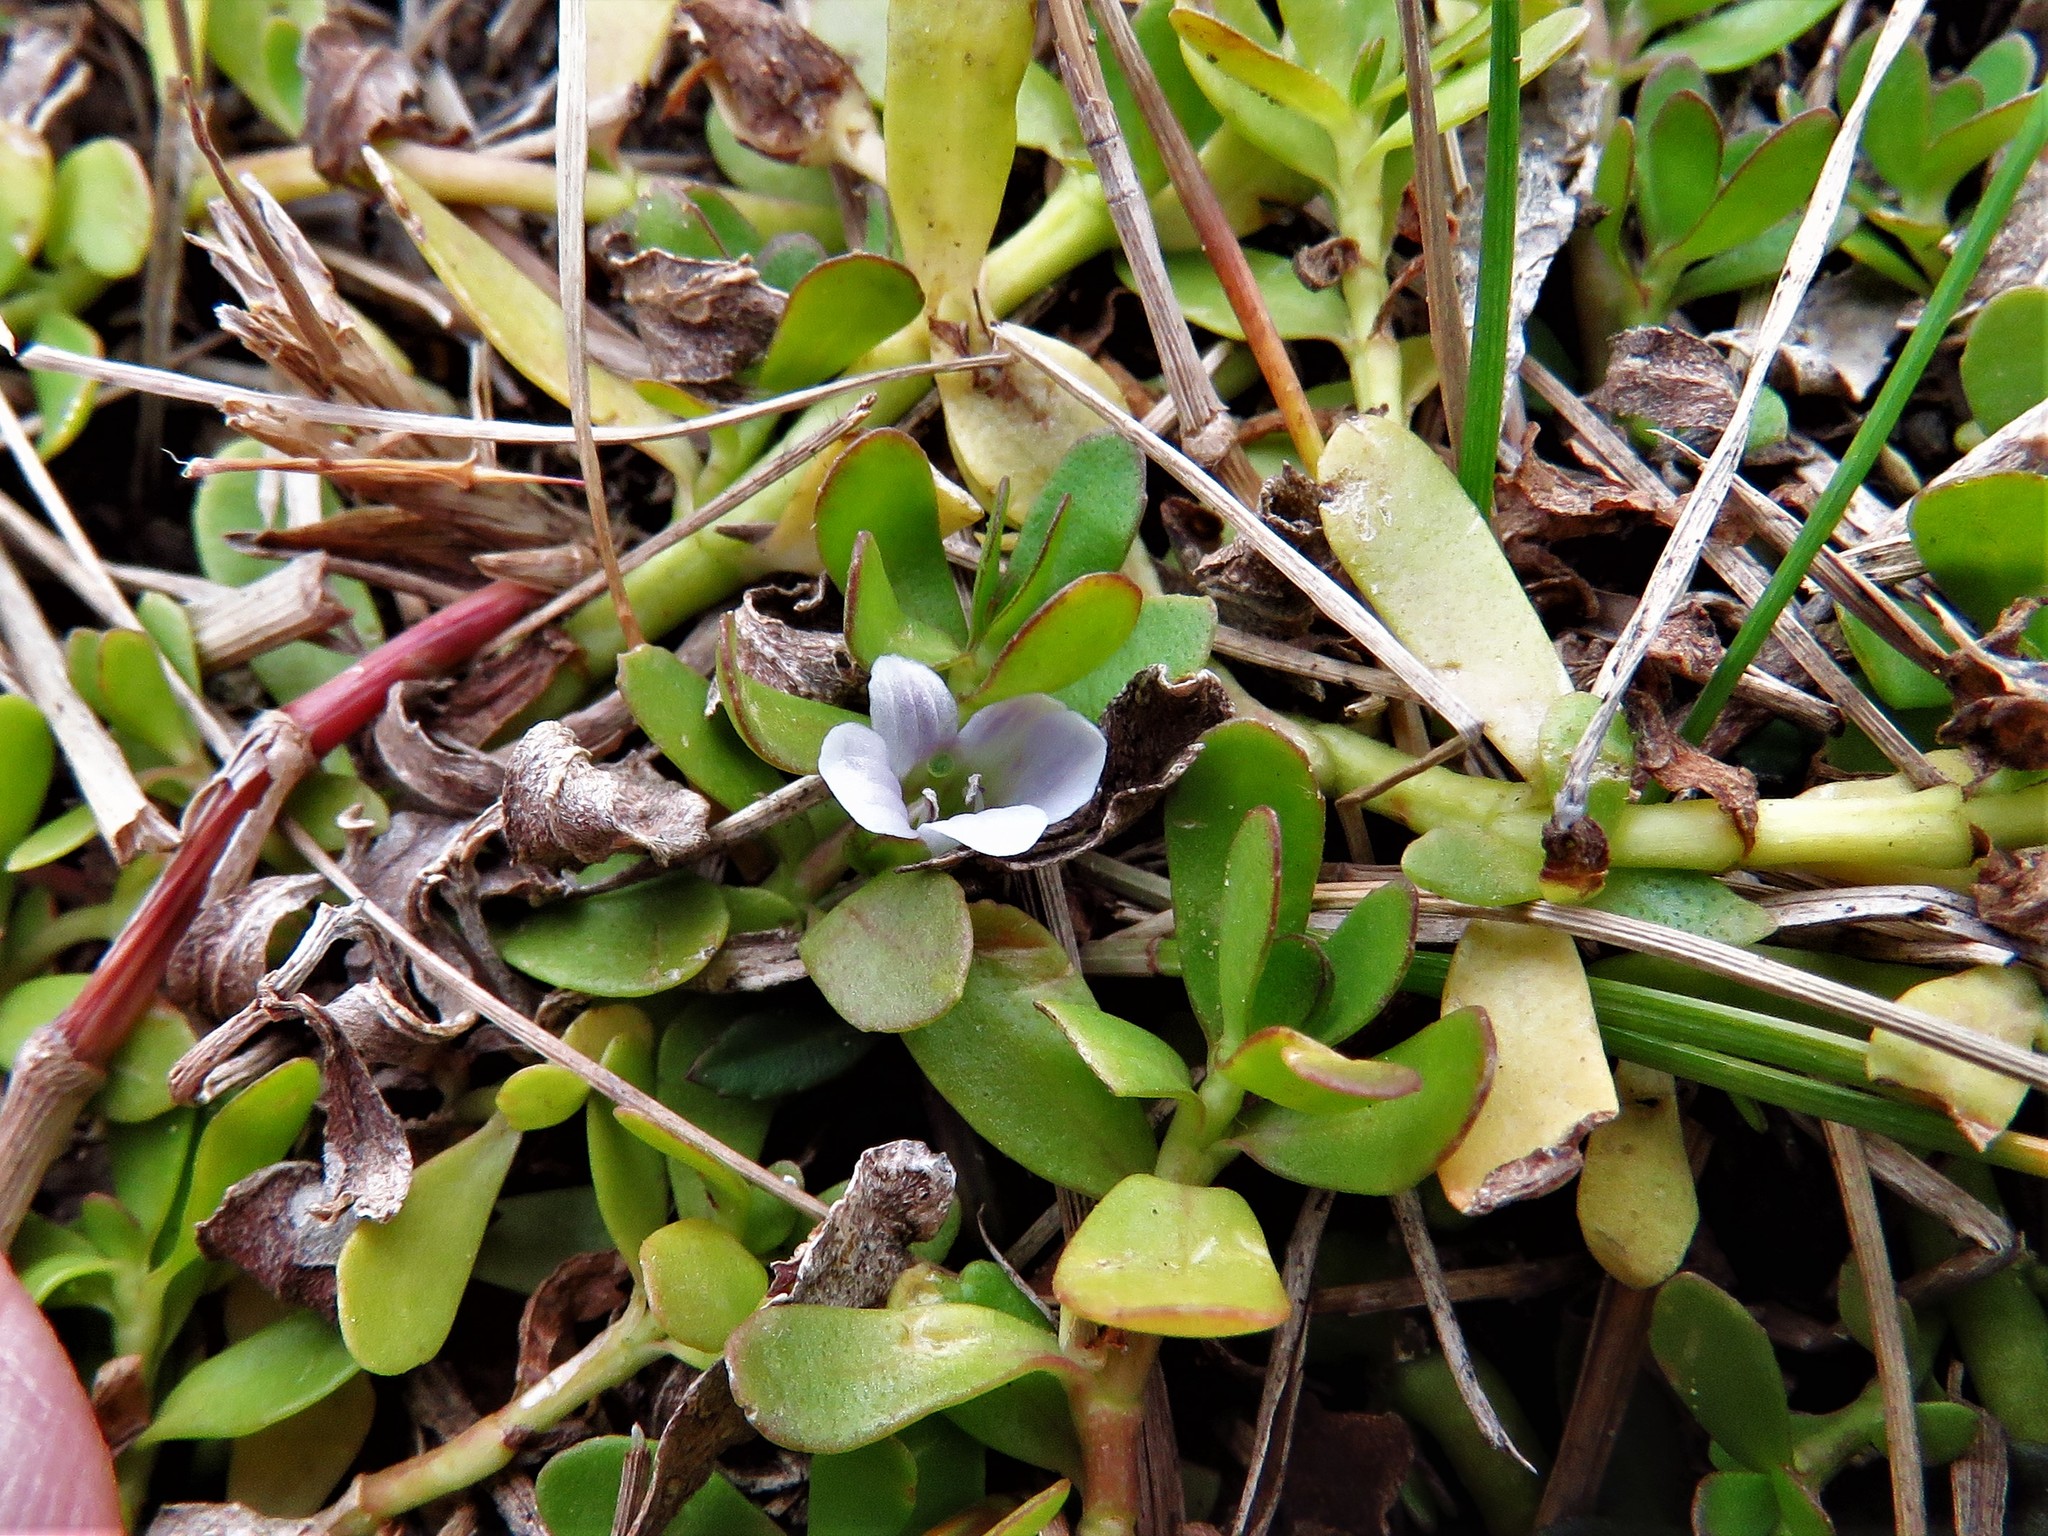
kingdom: Plantae
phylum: Tracheophyta
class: Magnoliopsida
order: Lamiales
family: Plantaginaceae
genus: Bacopa
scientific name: Bacopa monnieri
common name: Indian-pennywort
